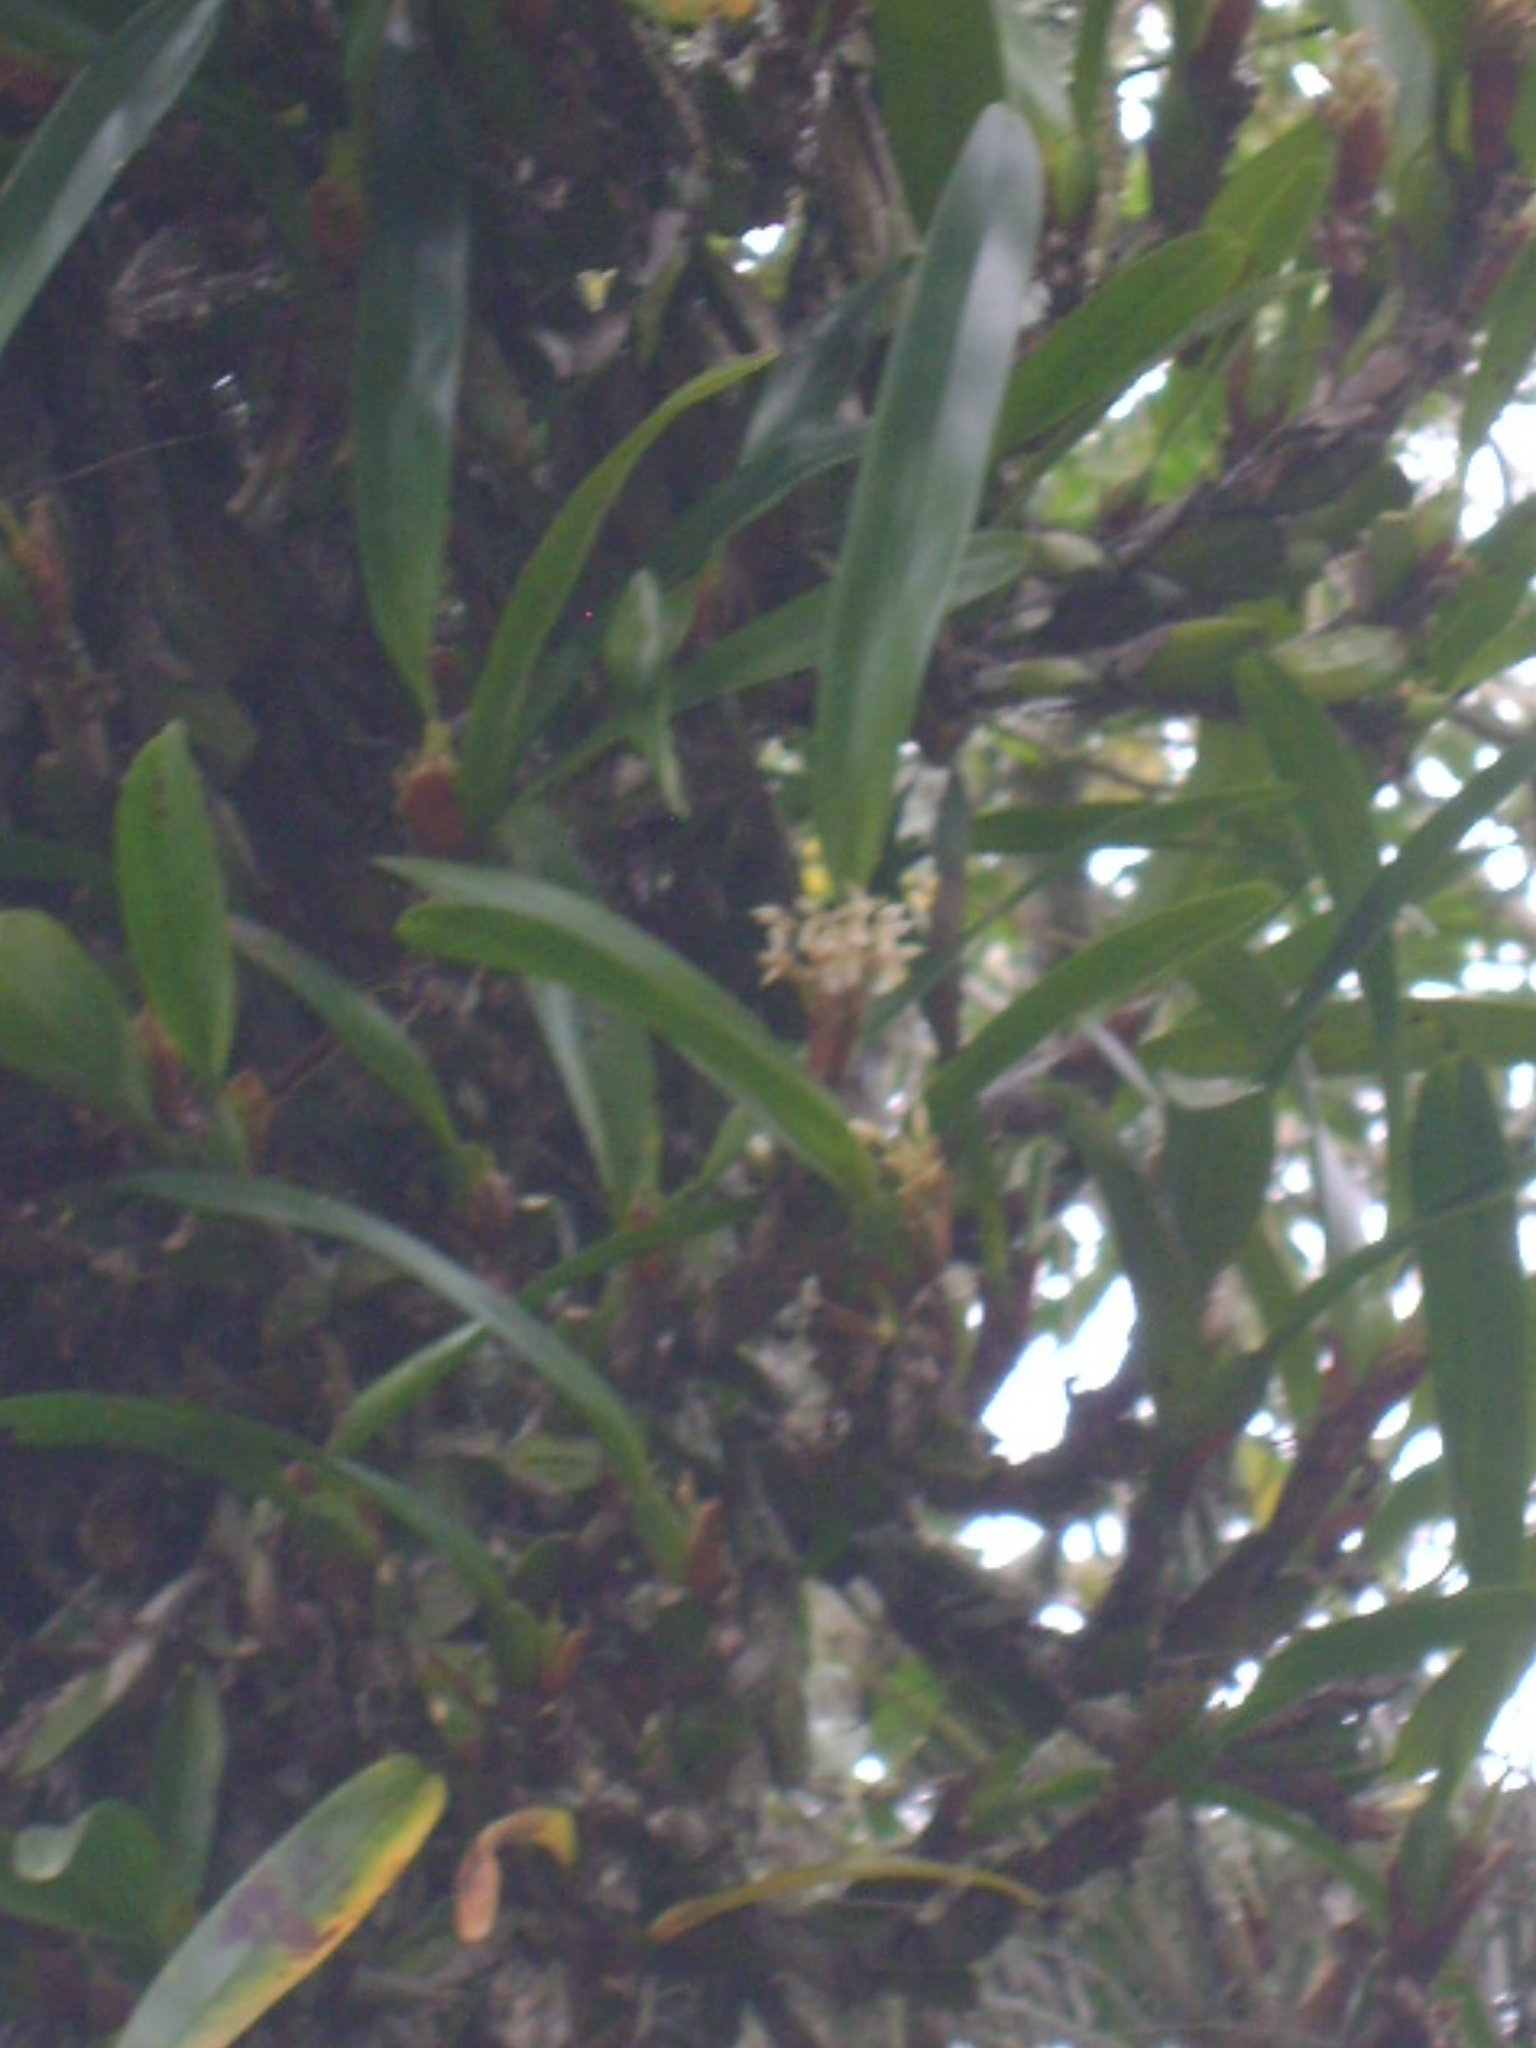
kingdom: Plantae
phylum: Tracheophyta
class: Liliopsida
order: Asparagales
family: Orchidaceae
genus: Maxillaria
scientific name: Maxillaria densa
